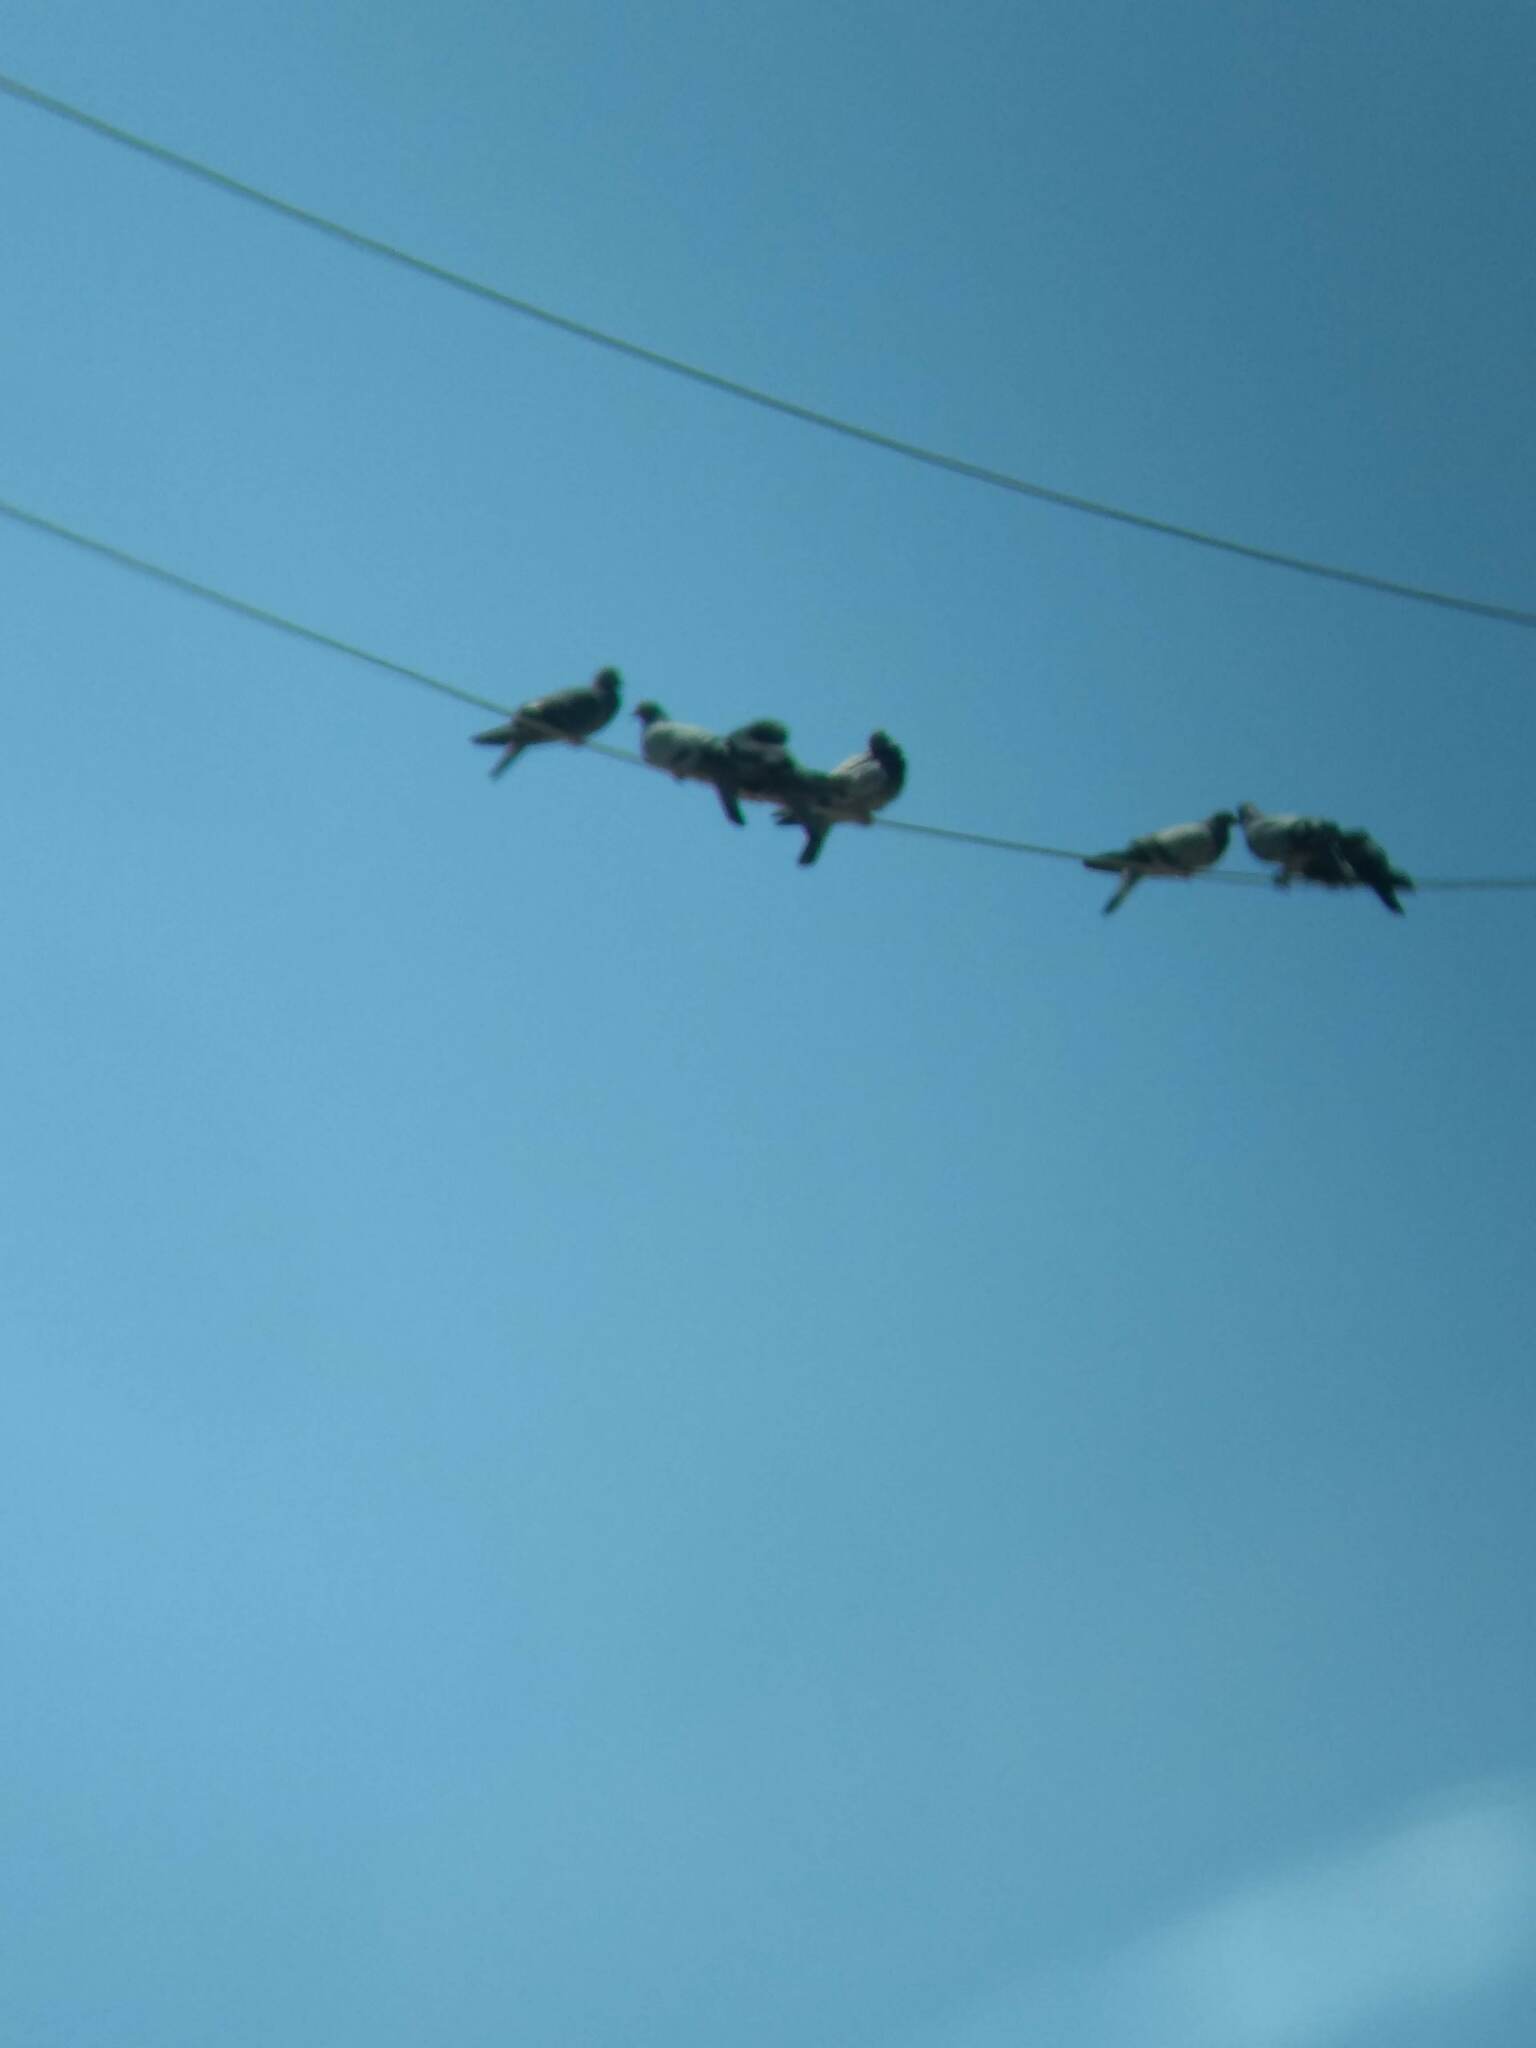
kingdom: Animalia
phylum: Chordata
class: Aves
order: Columbiformes
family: Columbidae
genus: Columba
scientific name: Columba livia
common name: Rock pigeon
